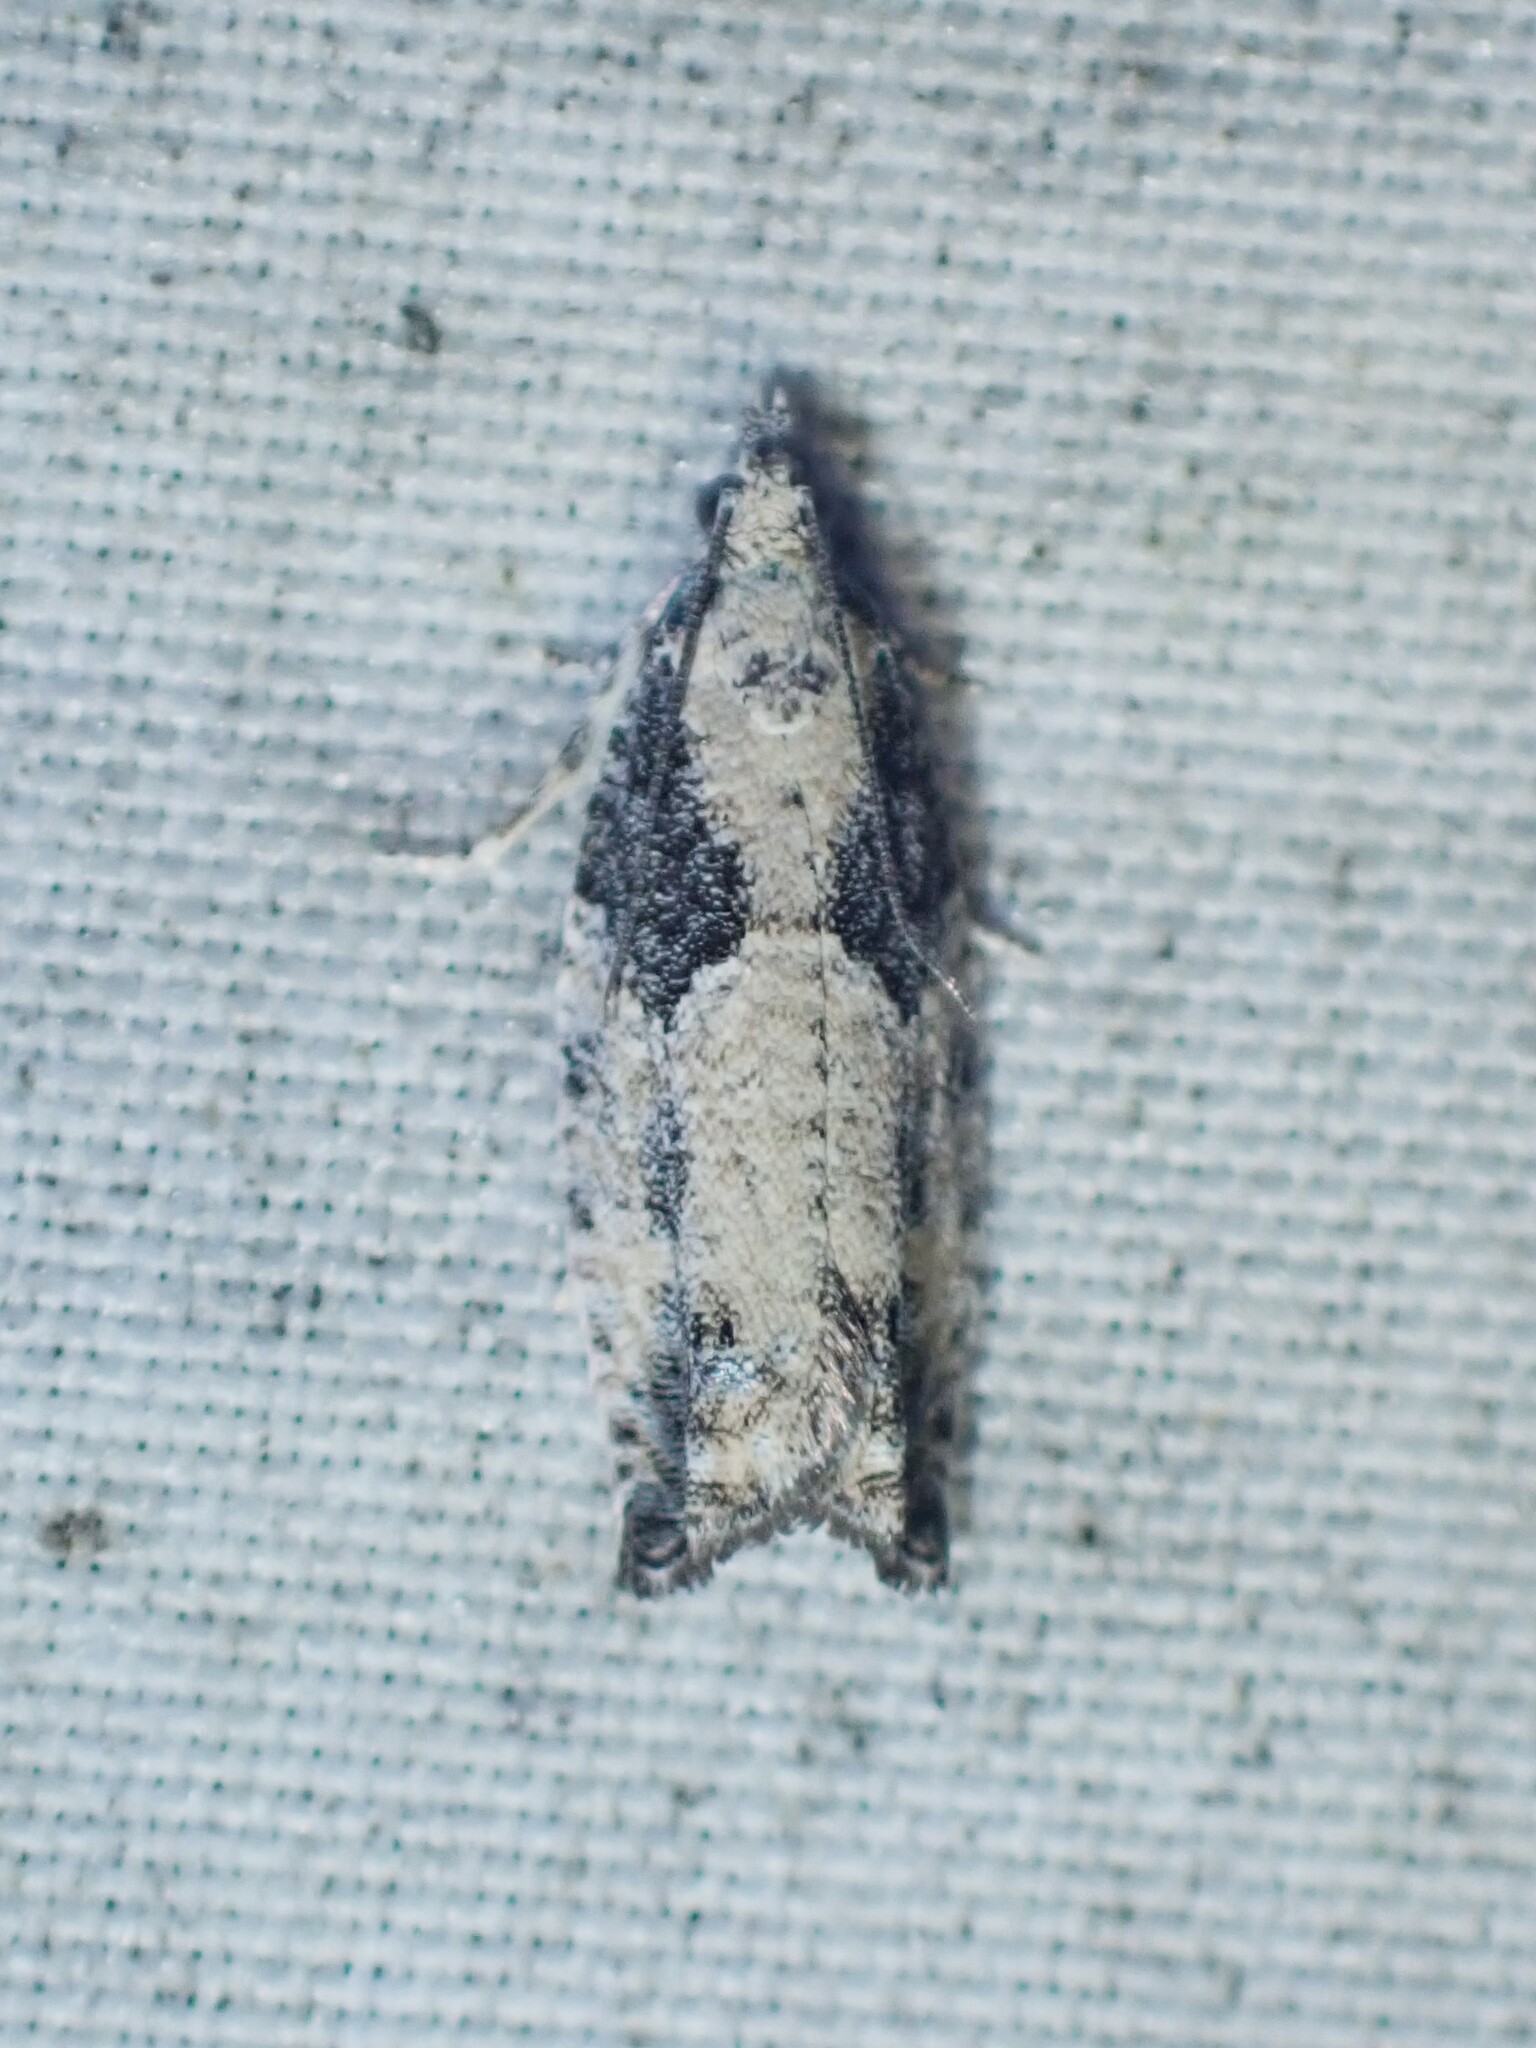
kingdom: Animalia
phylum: Arthropoda
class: Insecta
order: Lepidoptera
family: Tortricidae
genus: Epinotia
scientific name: Epinotia cinereana
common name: Grey aspen bell
